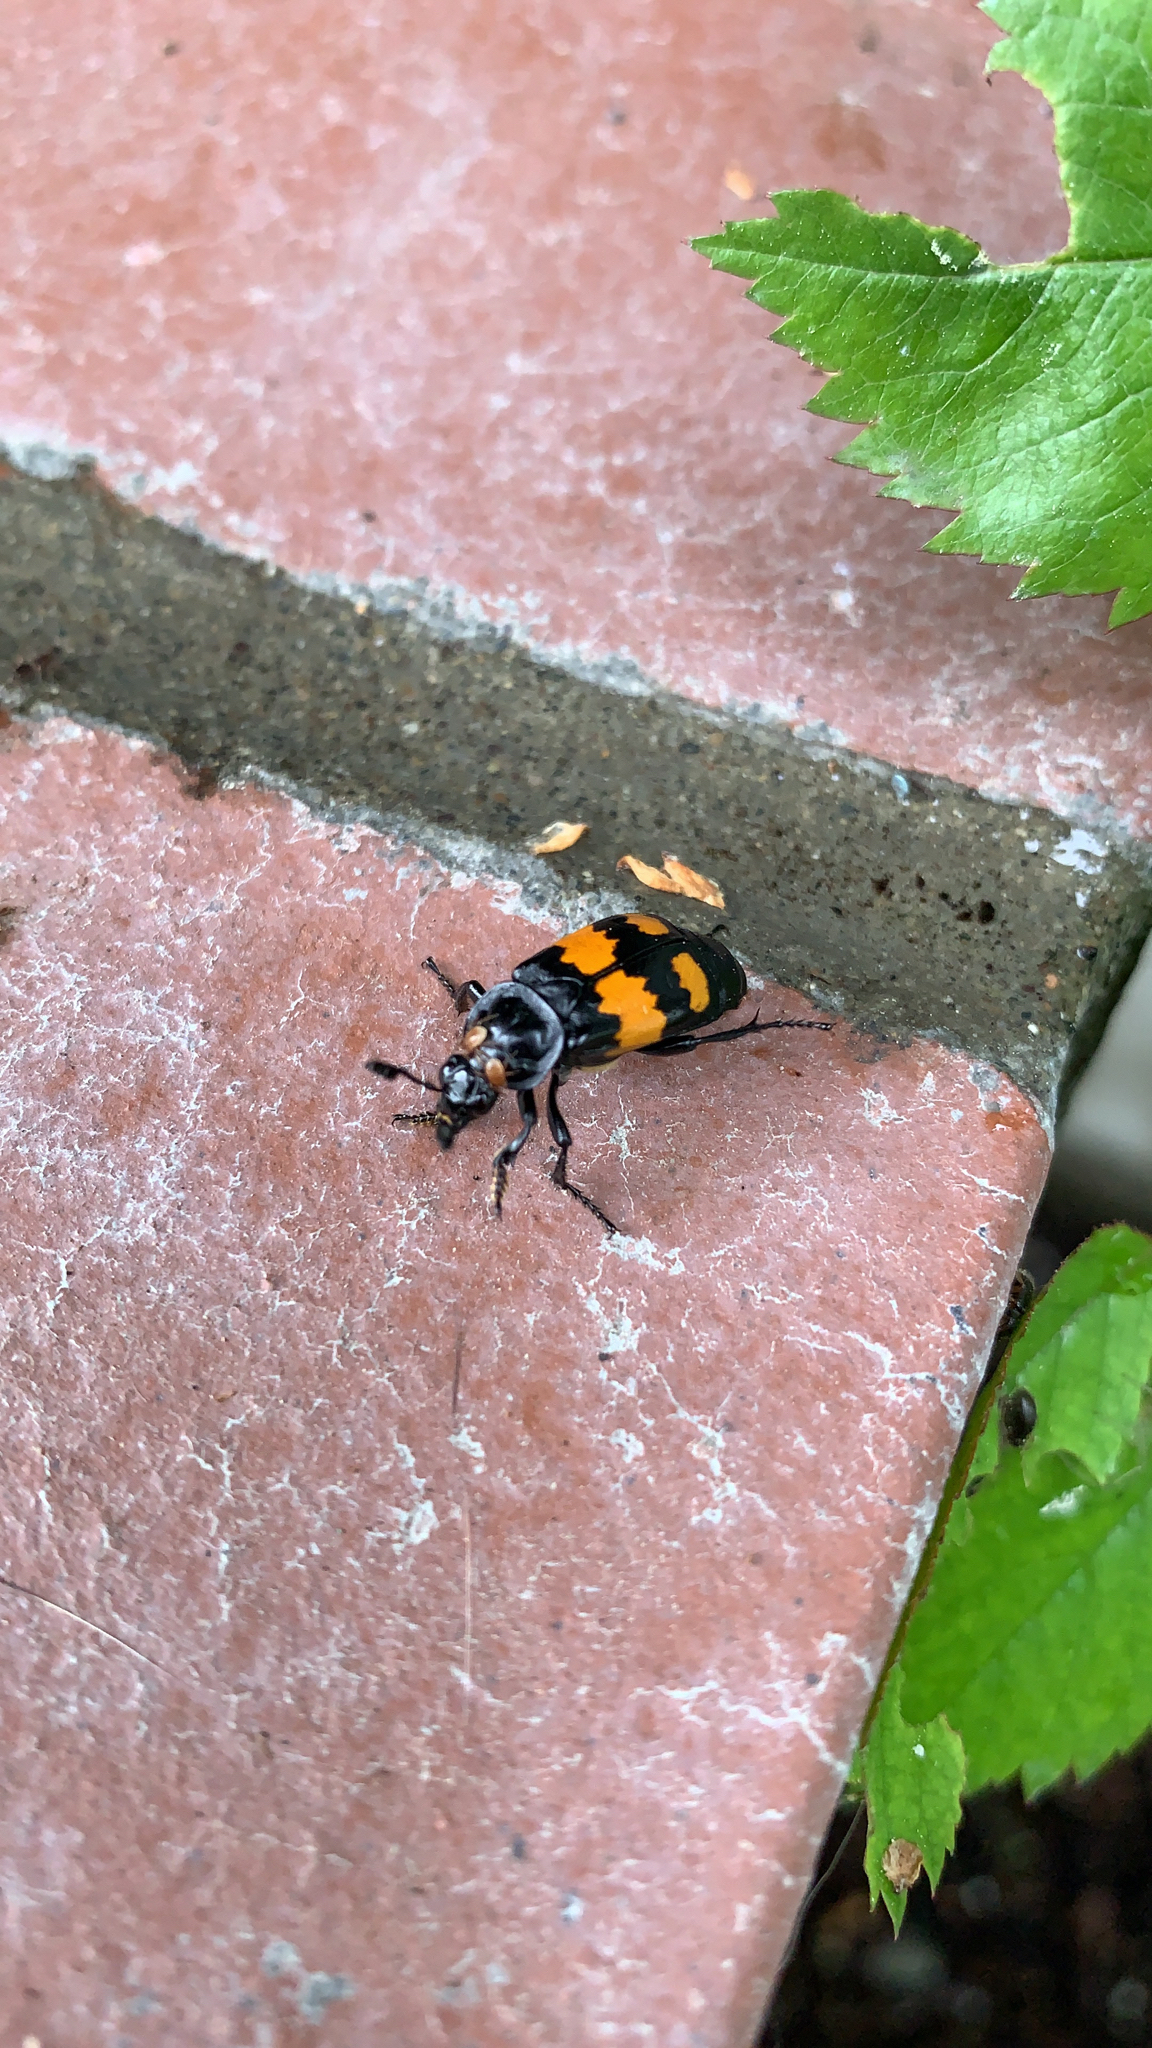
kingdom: Animalia
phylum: Arthropoda
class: Insecta
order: Coleoptera
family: Staphylinidae
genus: Nicrophorus
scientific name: Nicrophorus defodiens
